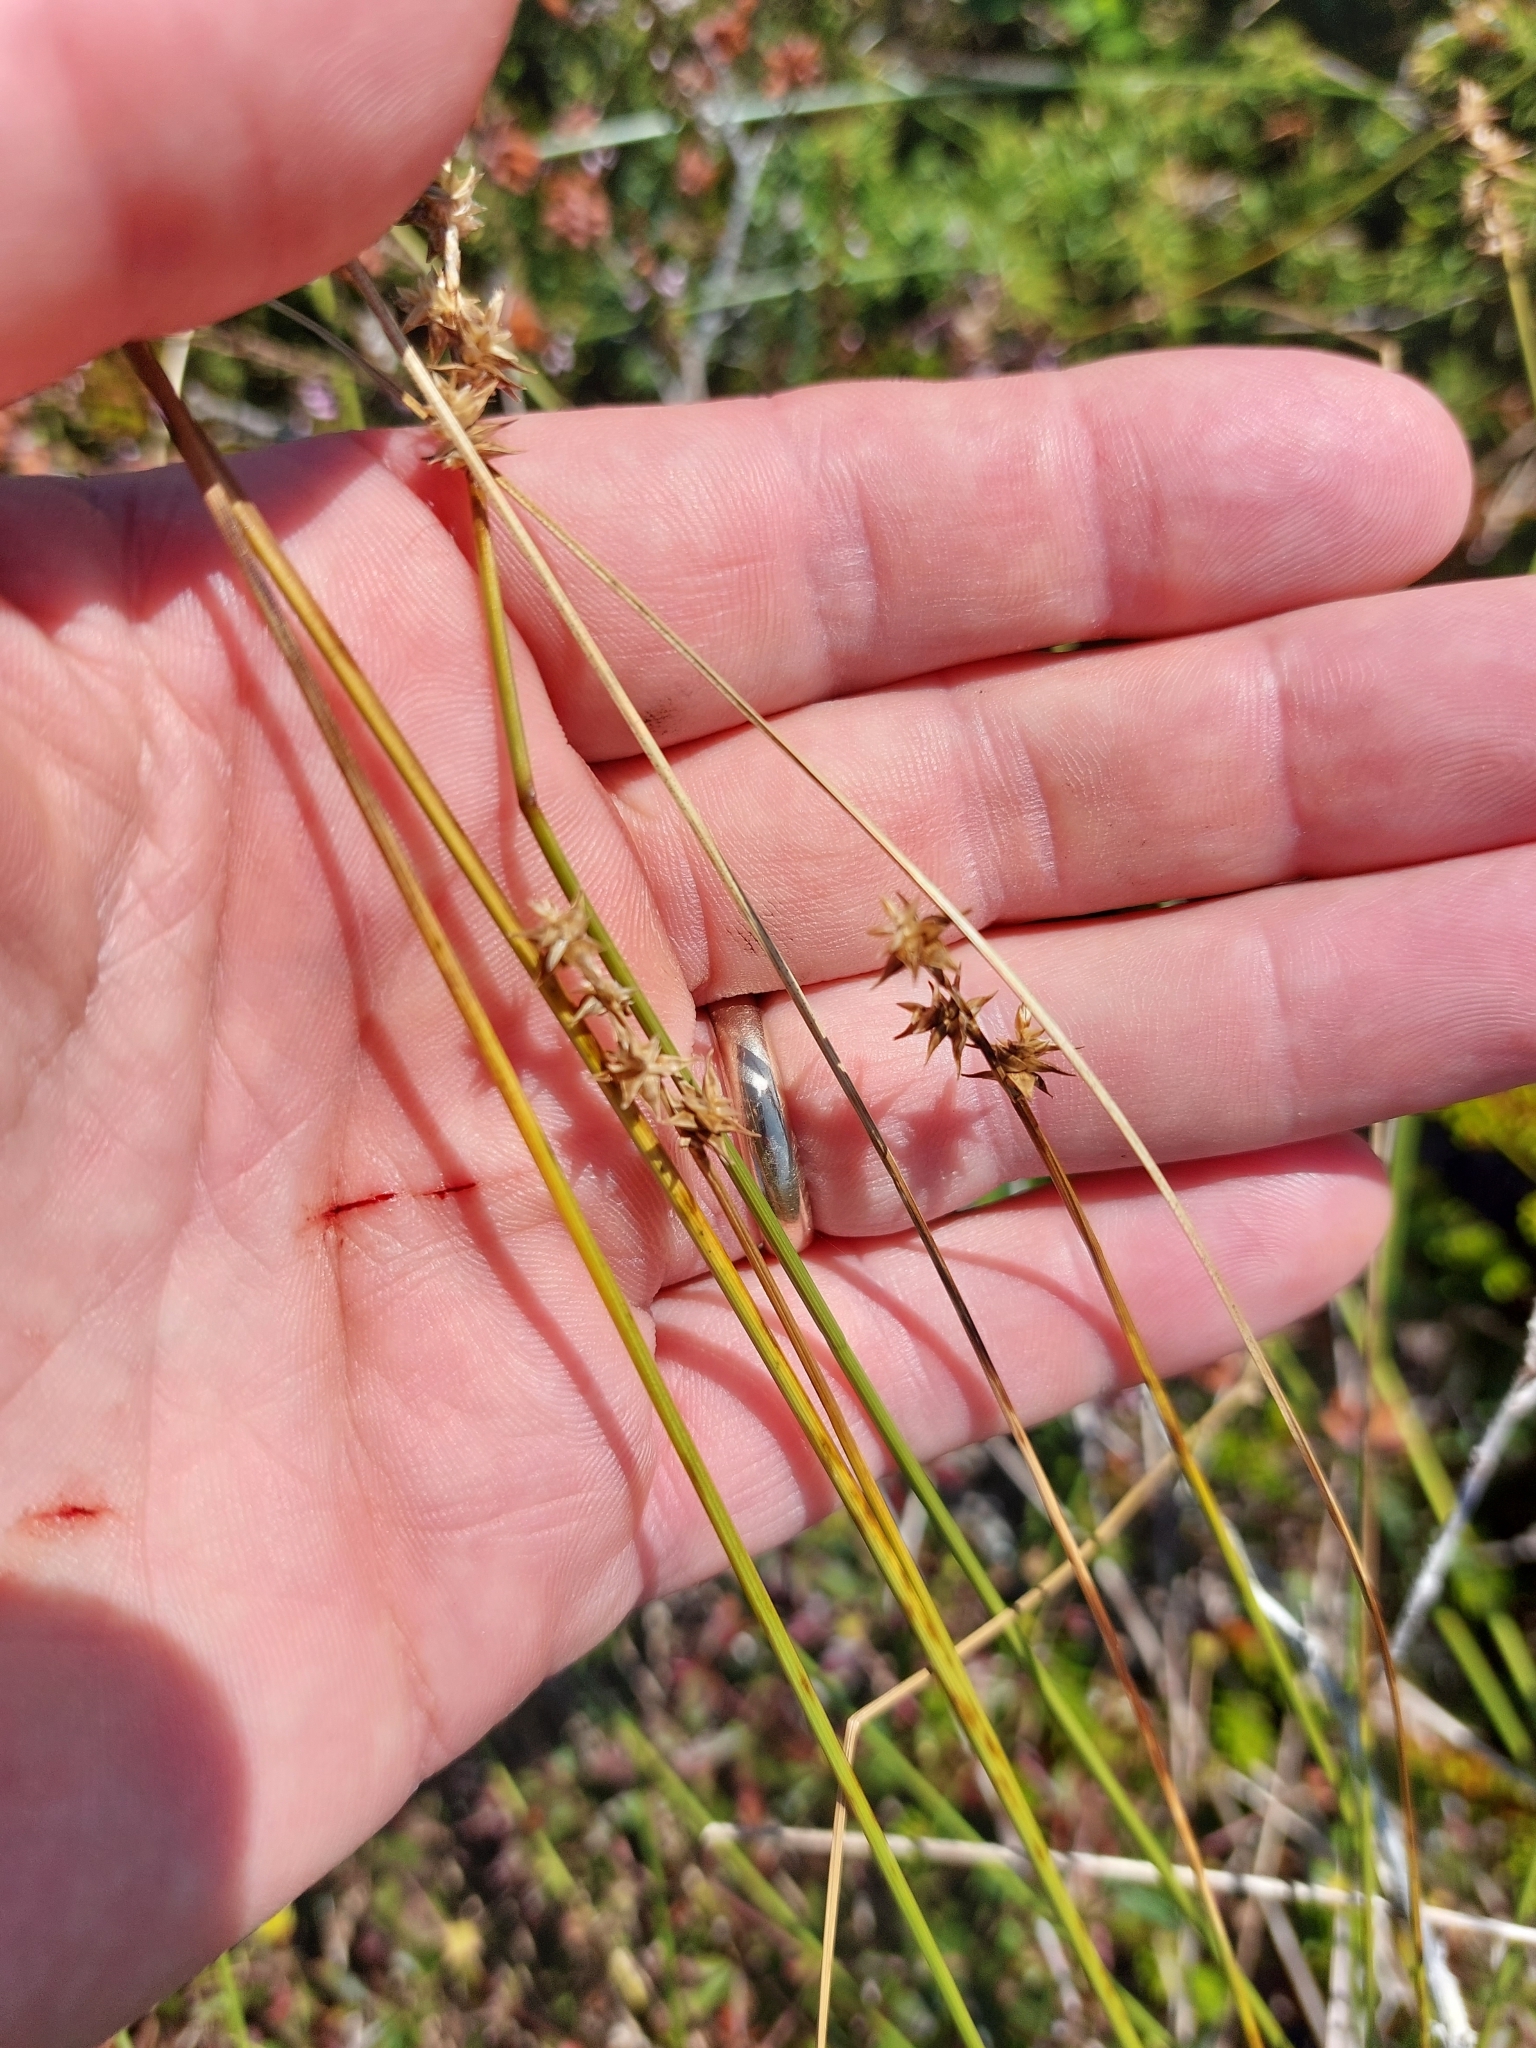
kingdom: Plantae
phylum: Tracheophyta
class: Liliopsida
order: Poales
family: Cyperaceae
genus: Carex
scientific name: Carex echinata
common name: Star sedge
